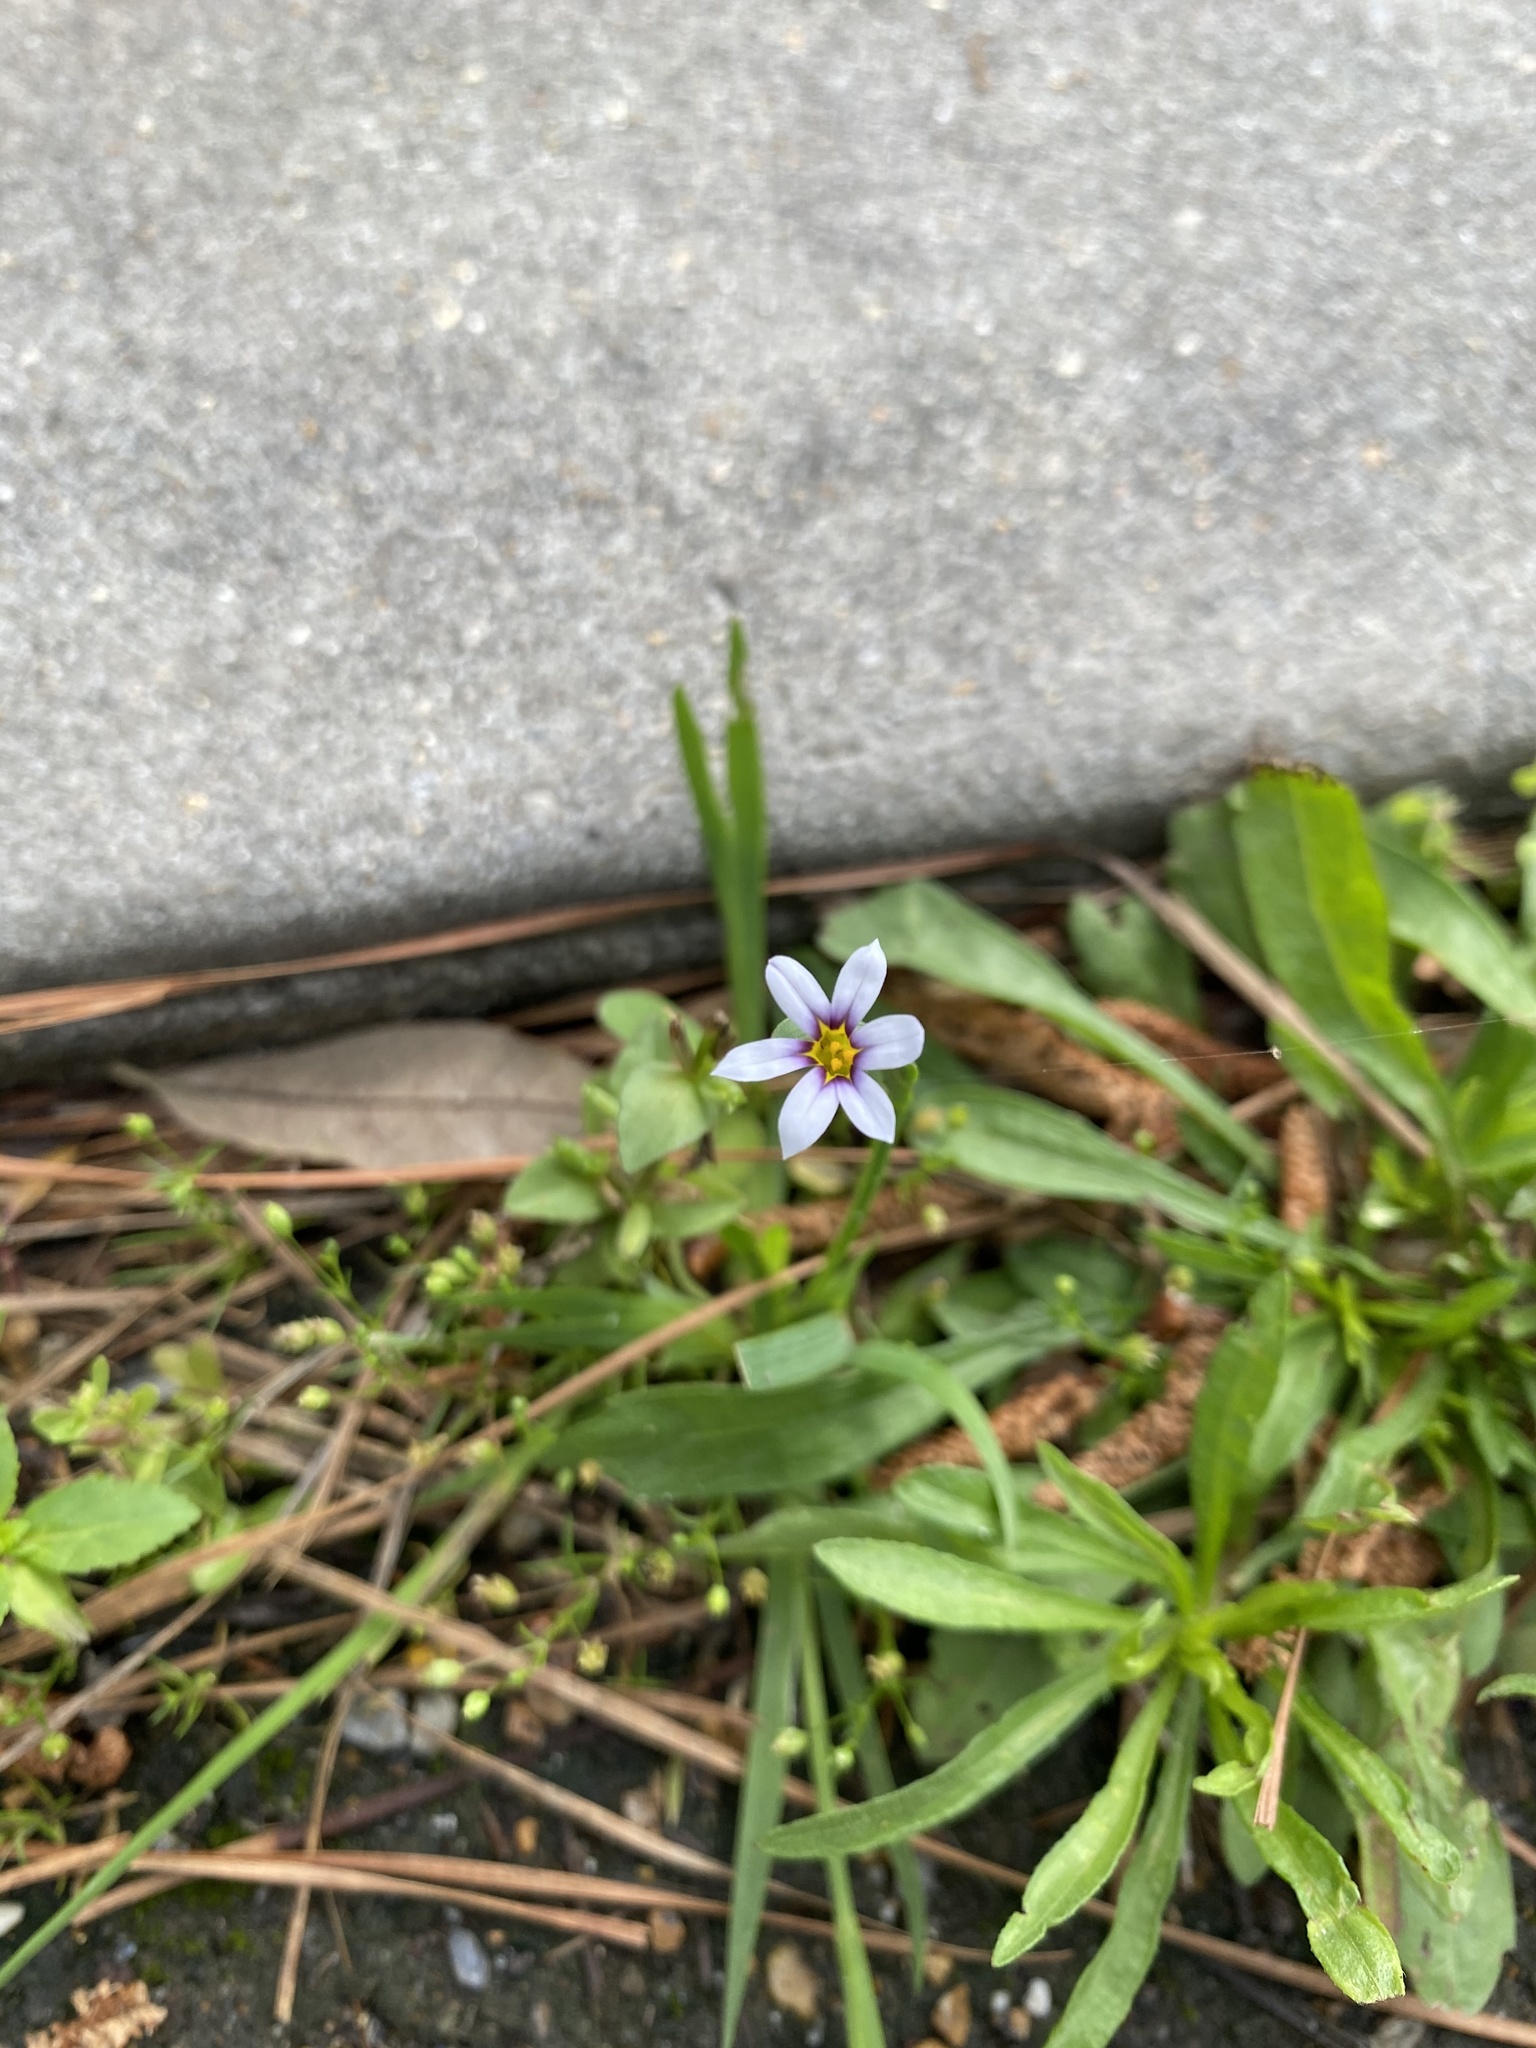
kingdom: Plantae
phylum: Tracheophyta
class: Liliopsida
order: Asparagales
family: Iridaceae
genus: Sisyrinchium
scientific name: Sisyrinchium micranthum
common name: Bermuda pigroot
